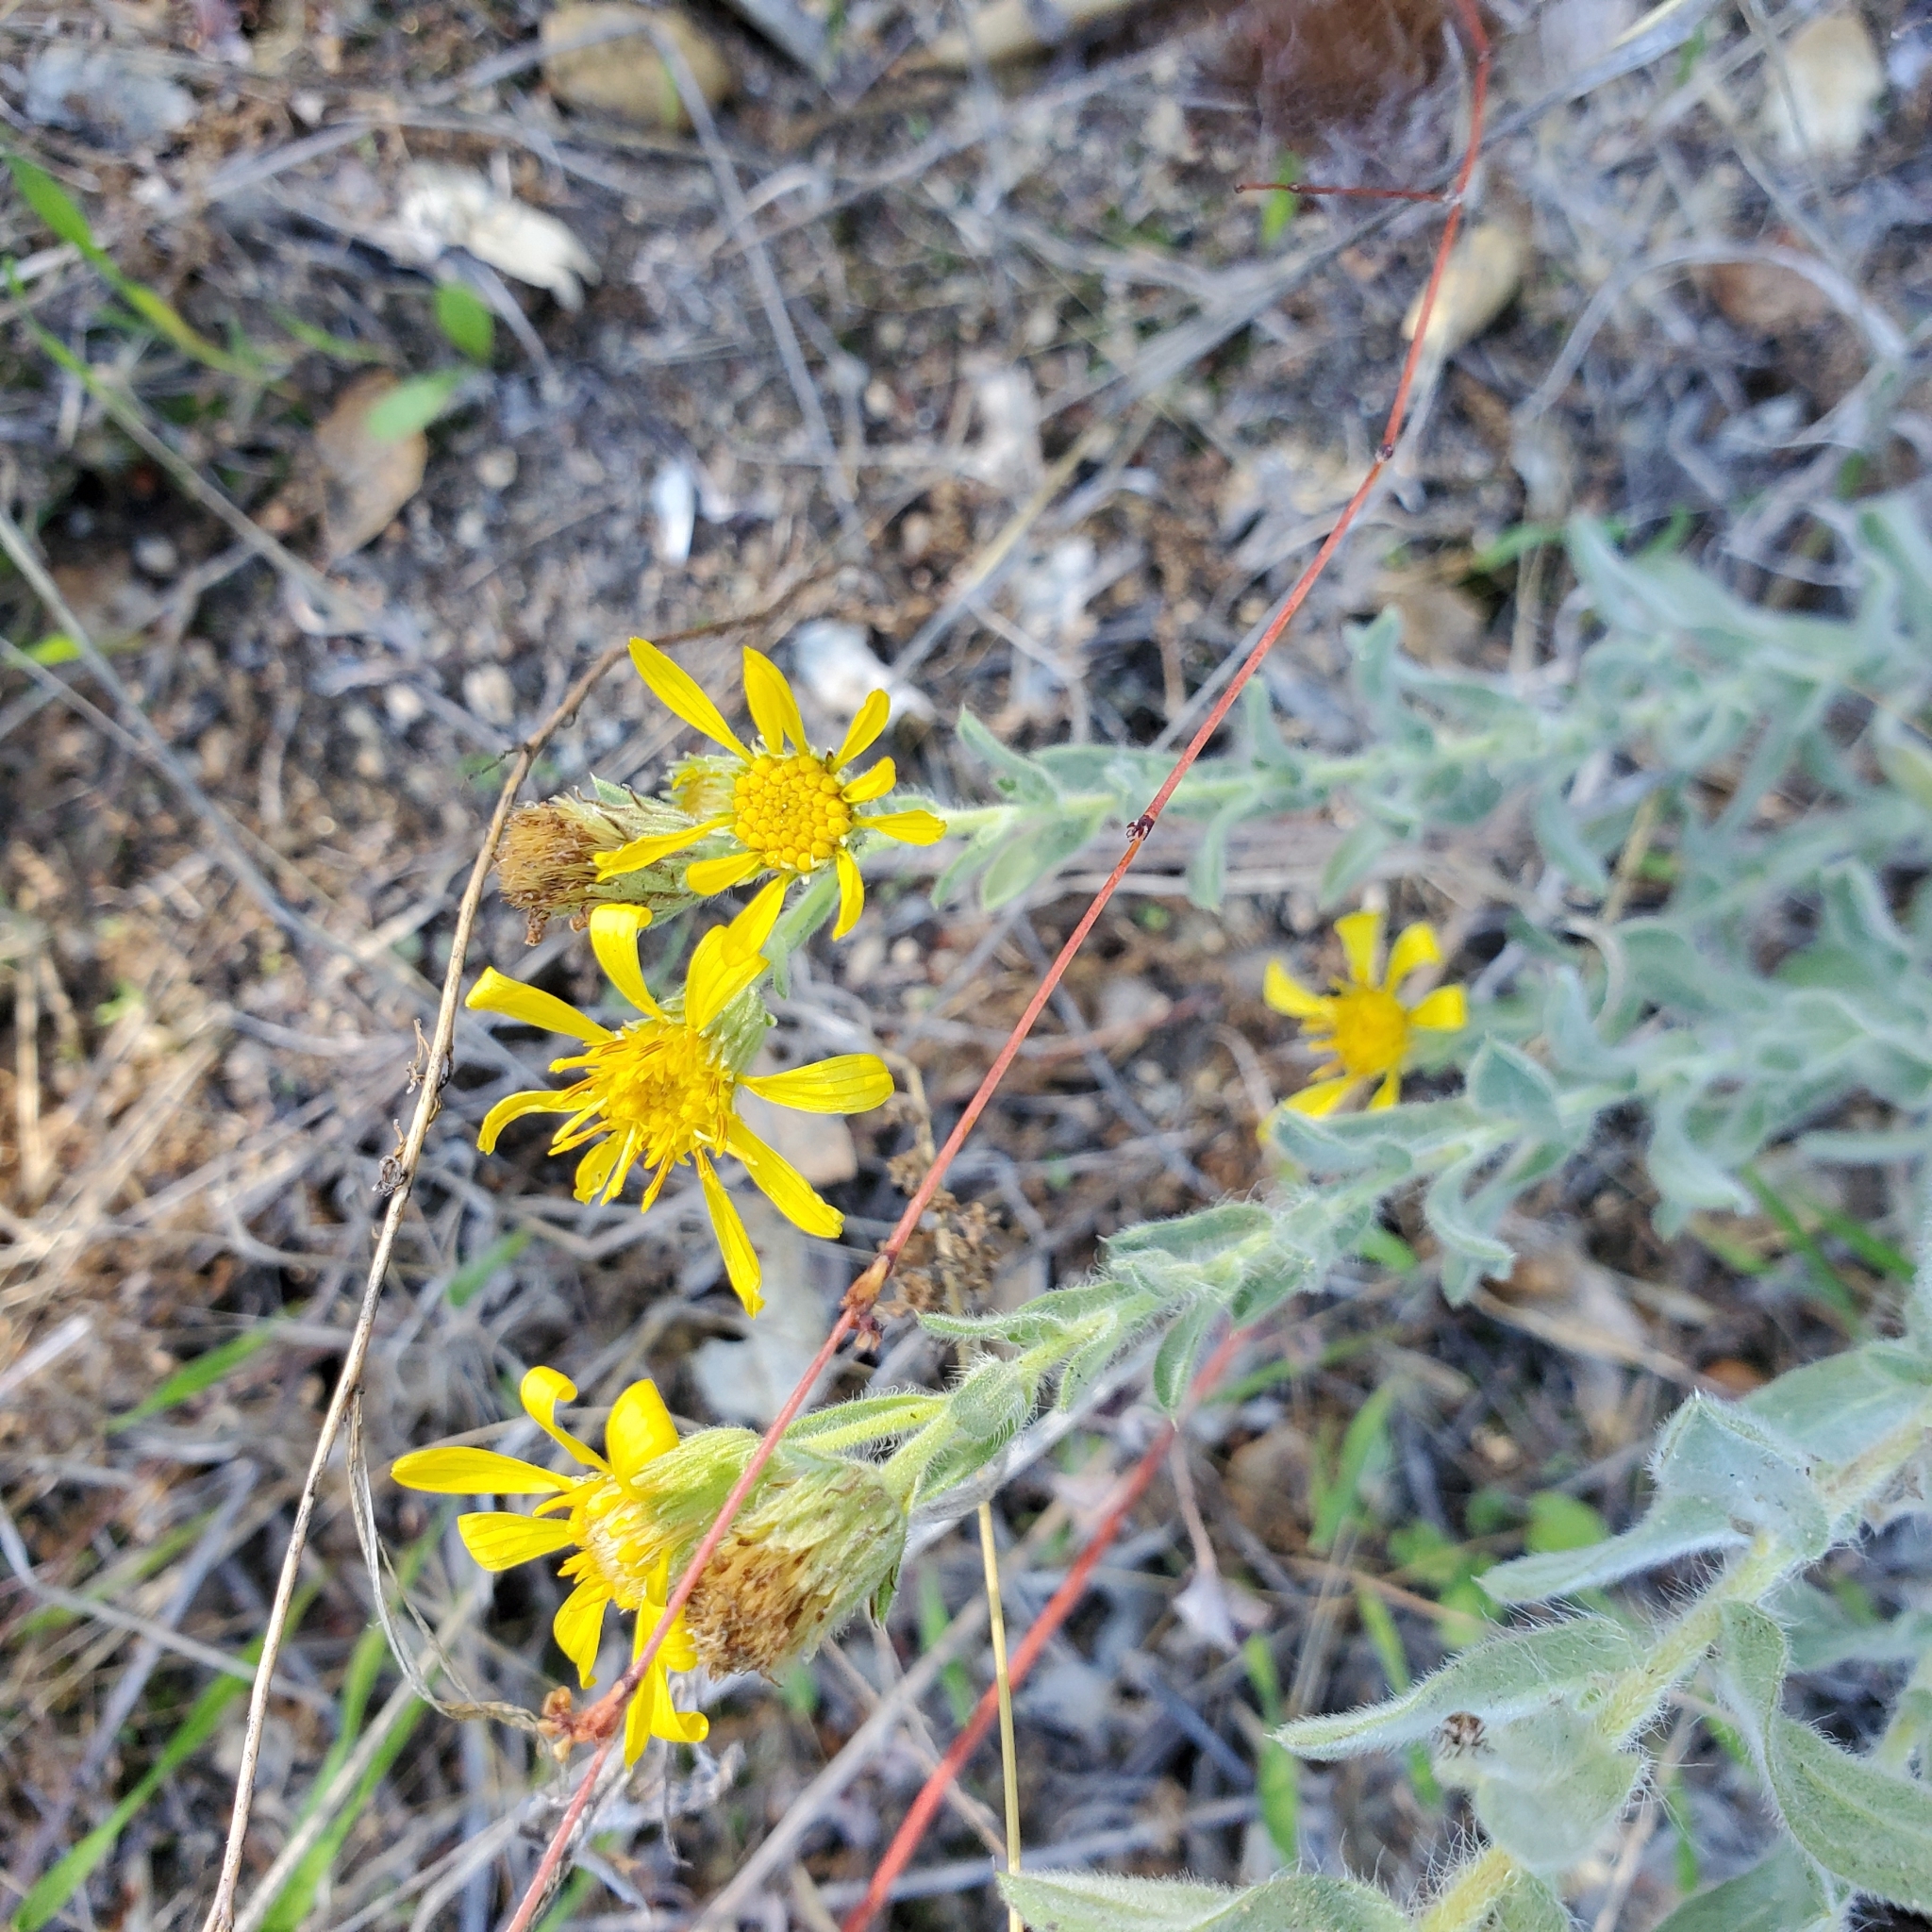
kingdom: Plantae
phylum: Tracheophyta
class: Magnoliopsida
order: Asterales
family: Asteraceae
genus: Heterotheca
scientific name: Heterotheca sessiliflora
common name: Sessile-flower golden-aster
